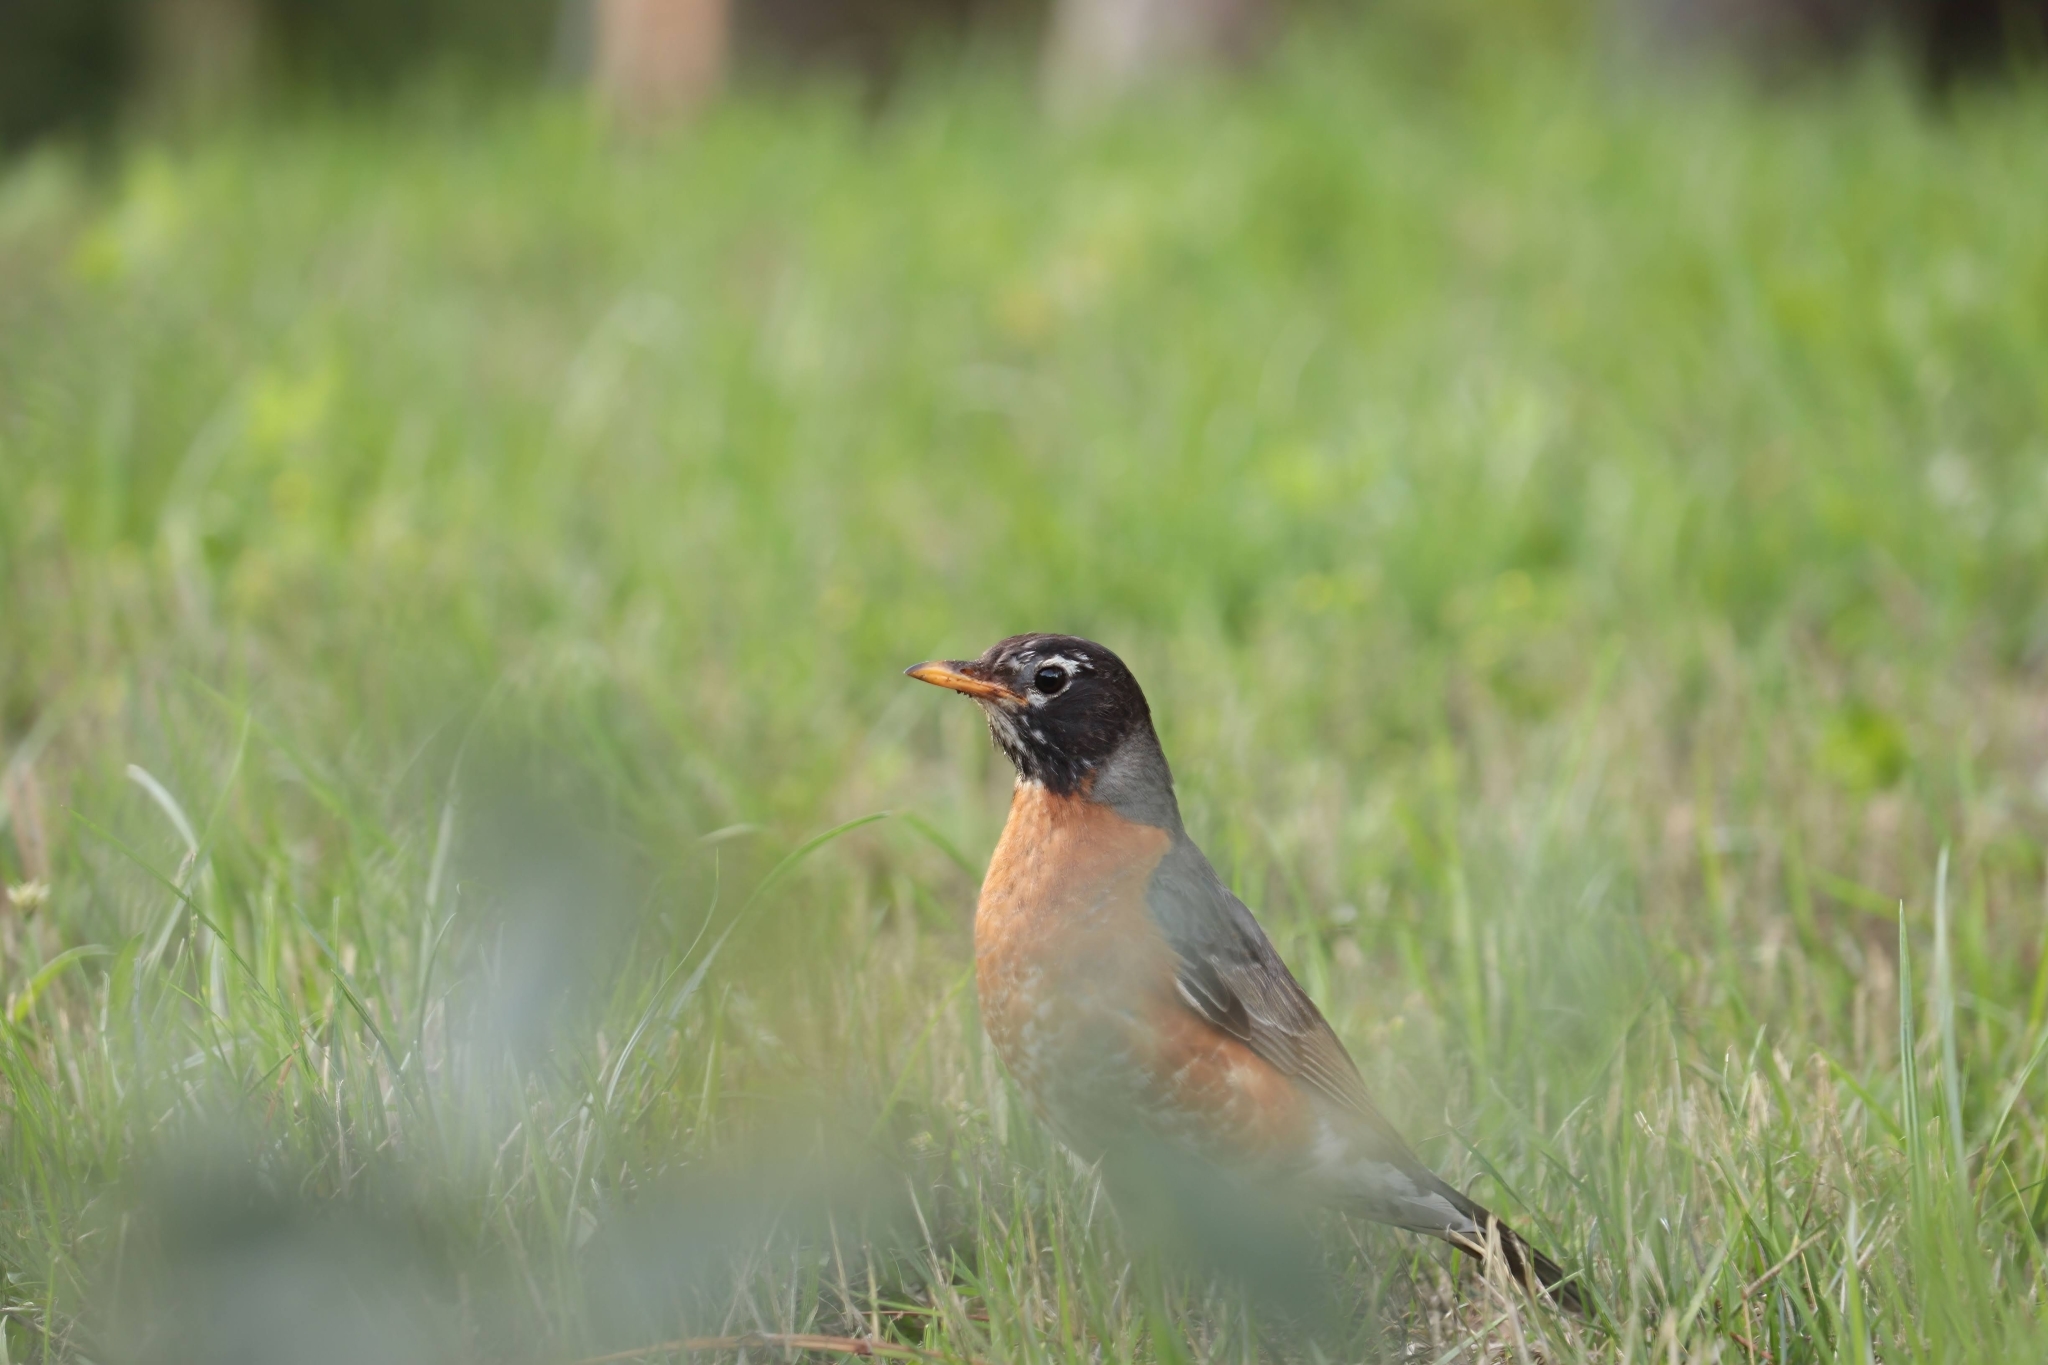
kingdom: Animalia
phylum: Chordata
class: Aves
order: Passeriformes
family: Turdidae
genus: Turdus
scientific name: Turdus migratorius
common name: American robin
